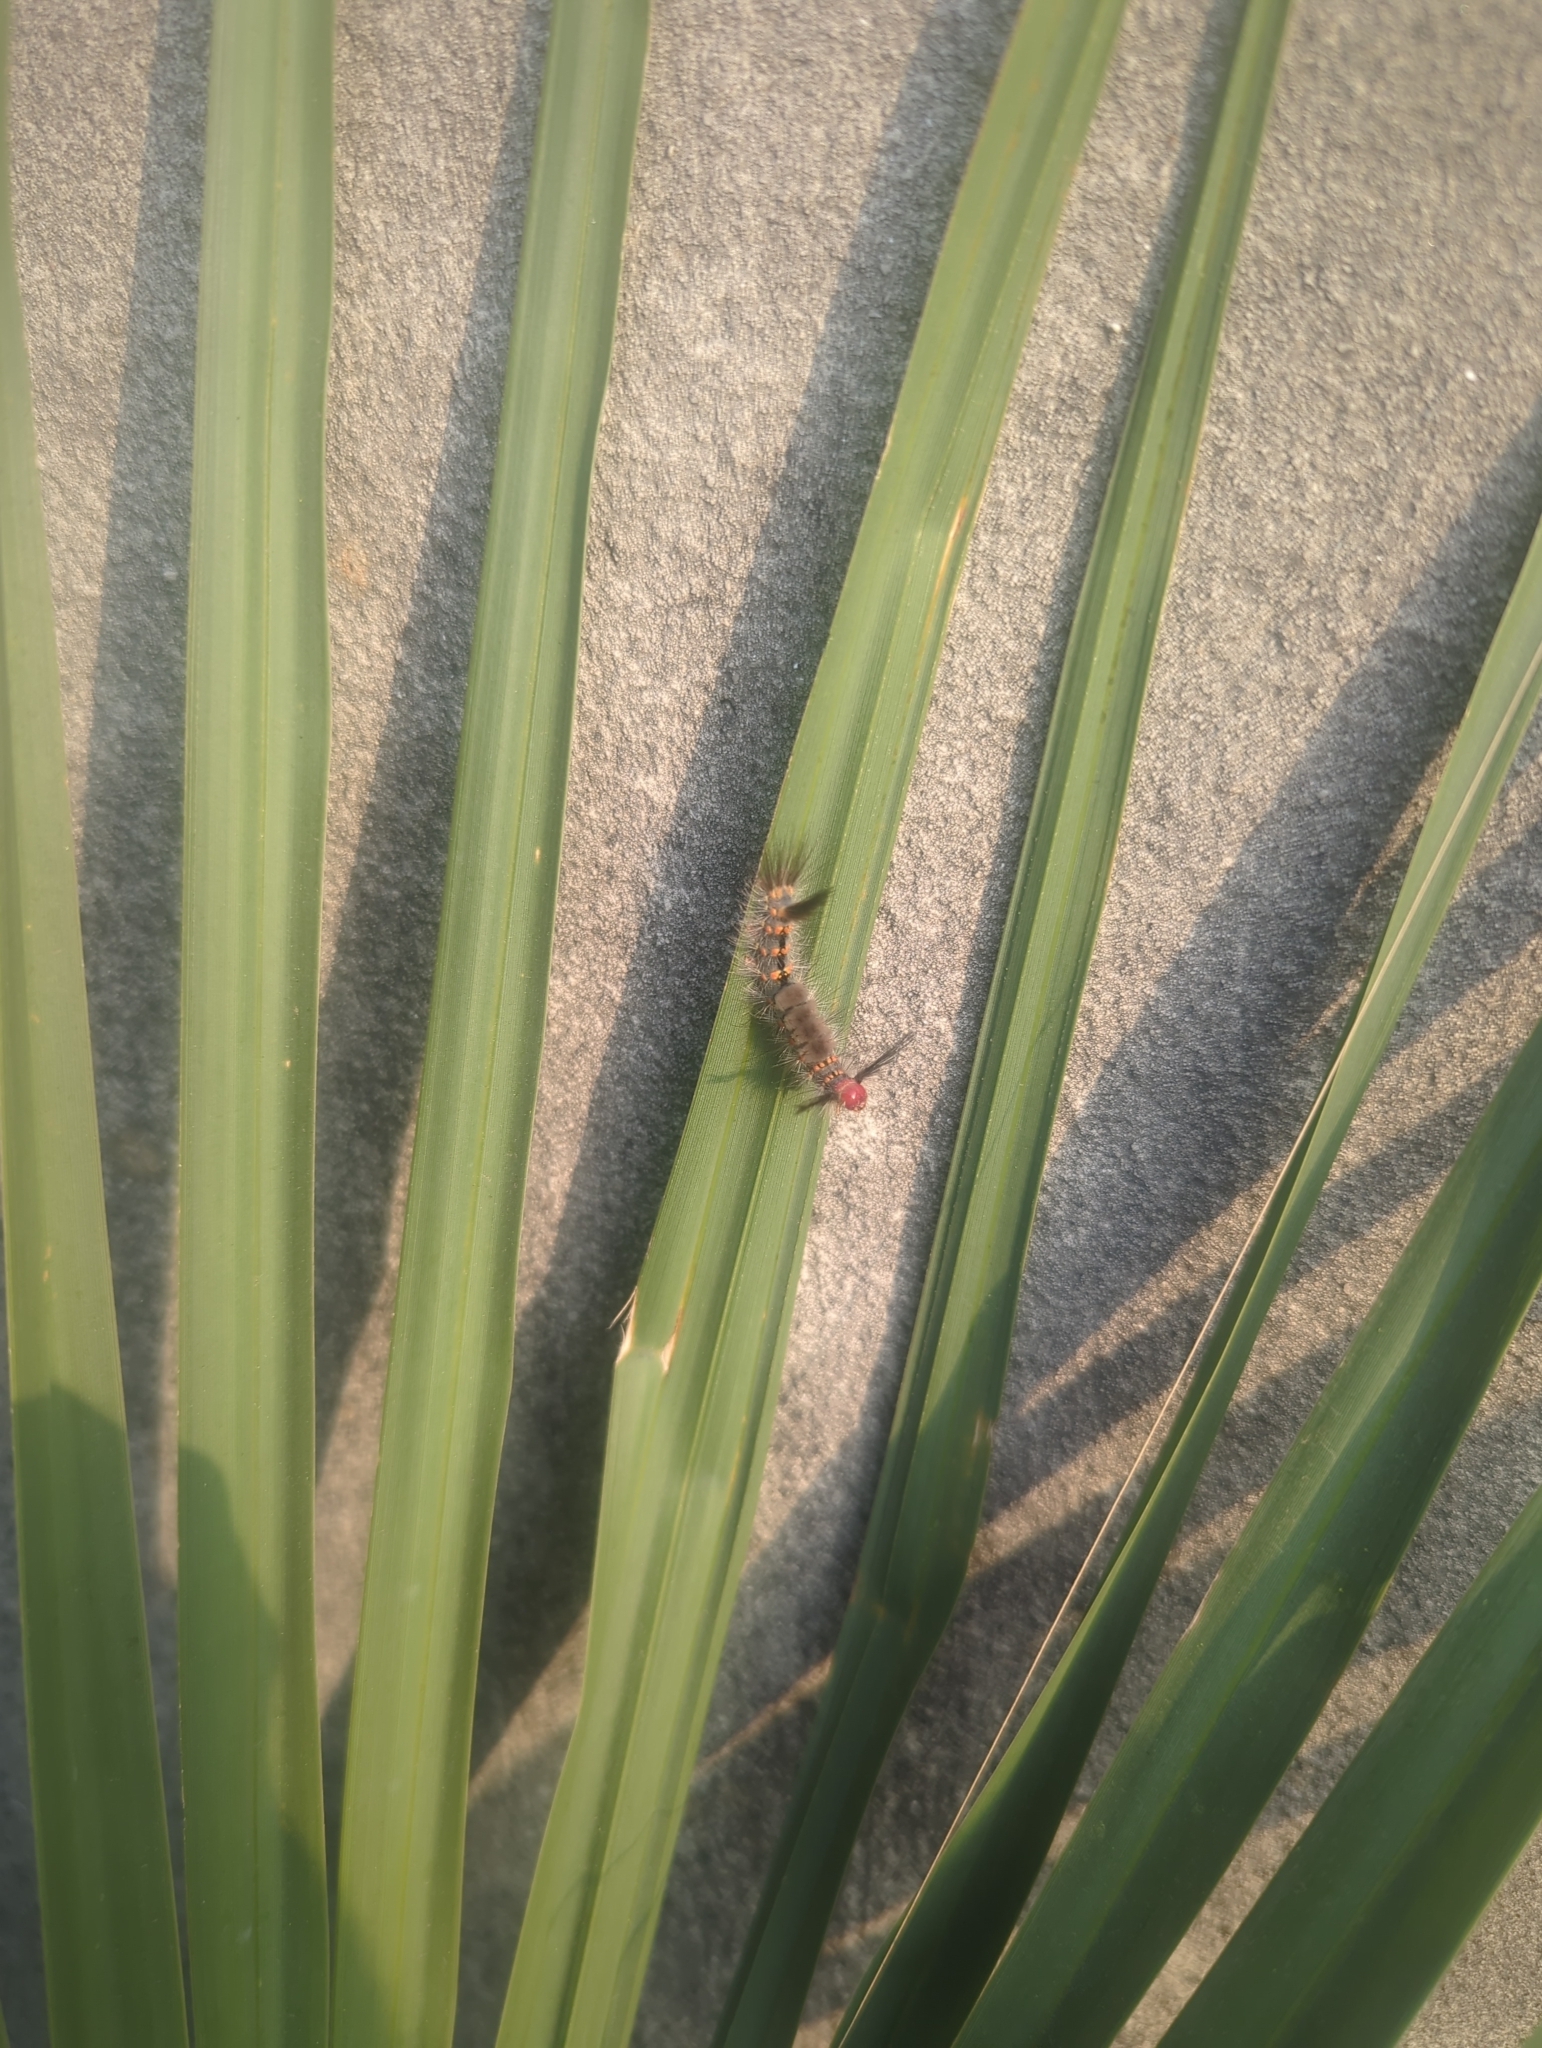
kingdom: Animalia
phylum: Arthropoda
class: Insecta
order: Lepidoptera
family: Erebidae
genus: Orgyia
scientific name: Orgyia detrita
